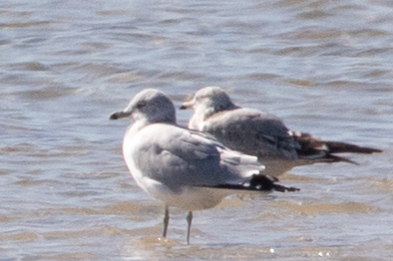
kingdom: Animalia
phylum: Chordata
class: Aves
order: Charadriiformes
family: Laridae
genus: Larus
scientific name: Larus delawarensis
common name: Ring-billed gull
